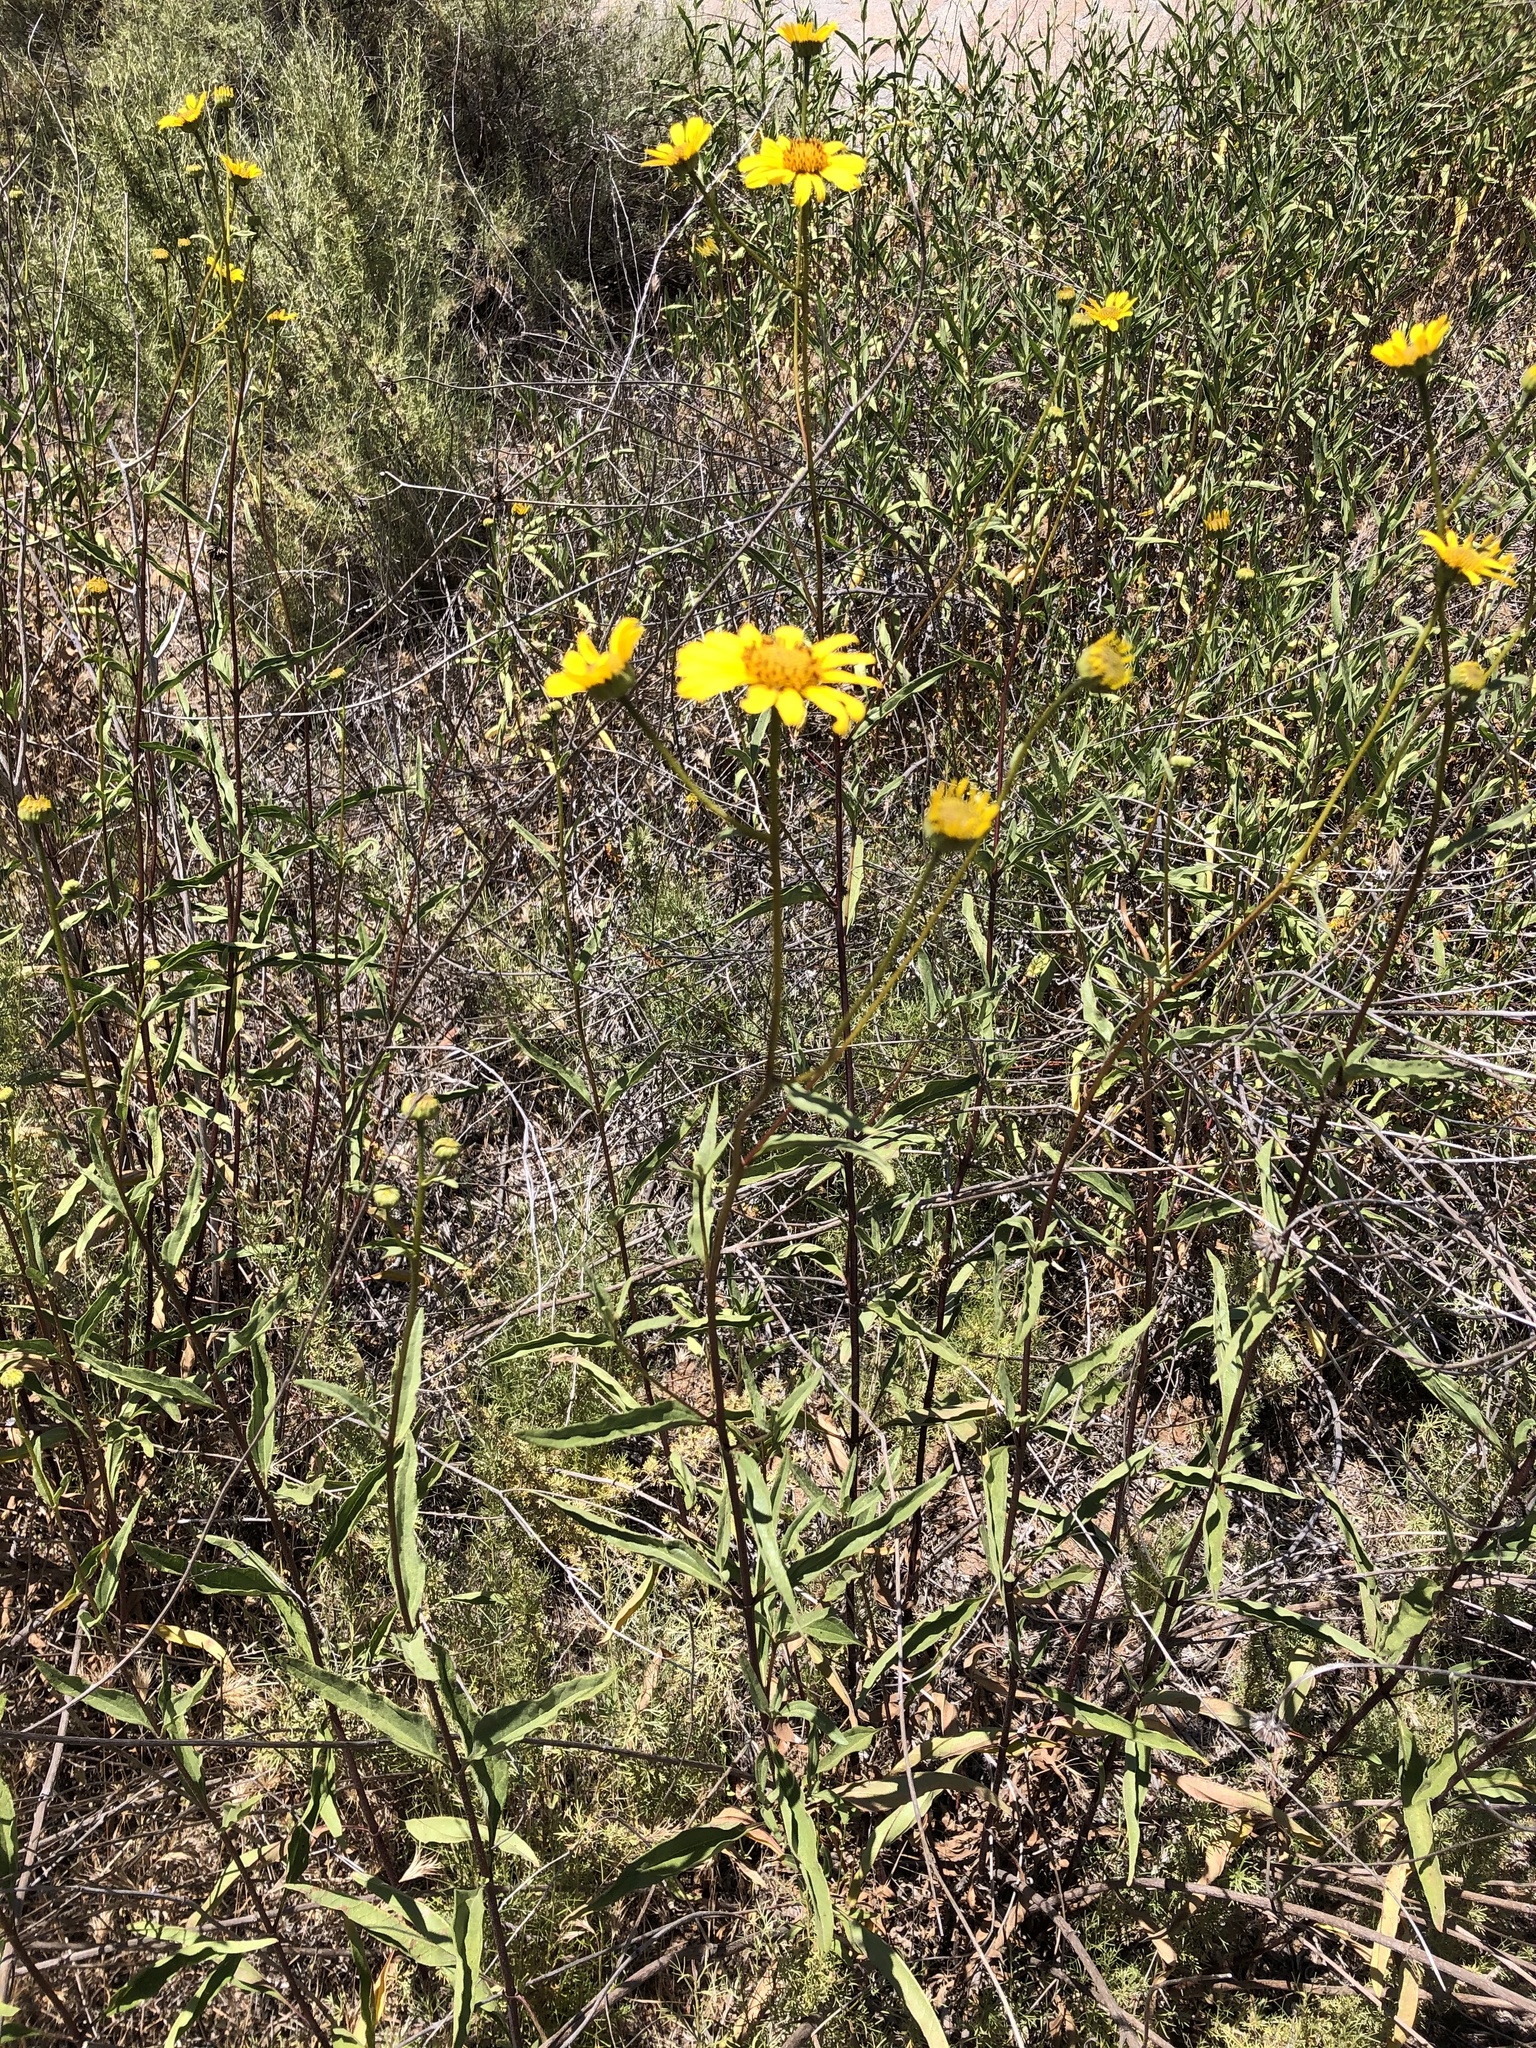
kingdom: Plantae
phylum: Tracheophyta
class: Magnoliopsida
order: Asterales
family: Asteraceae
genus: Helianthus
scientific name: Helianthus gracilentus
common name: Slender sunflower
